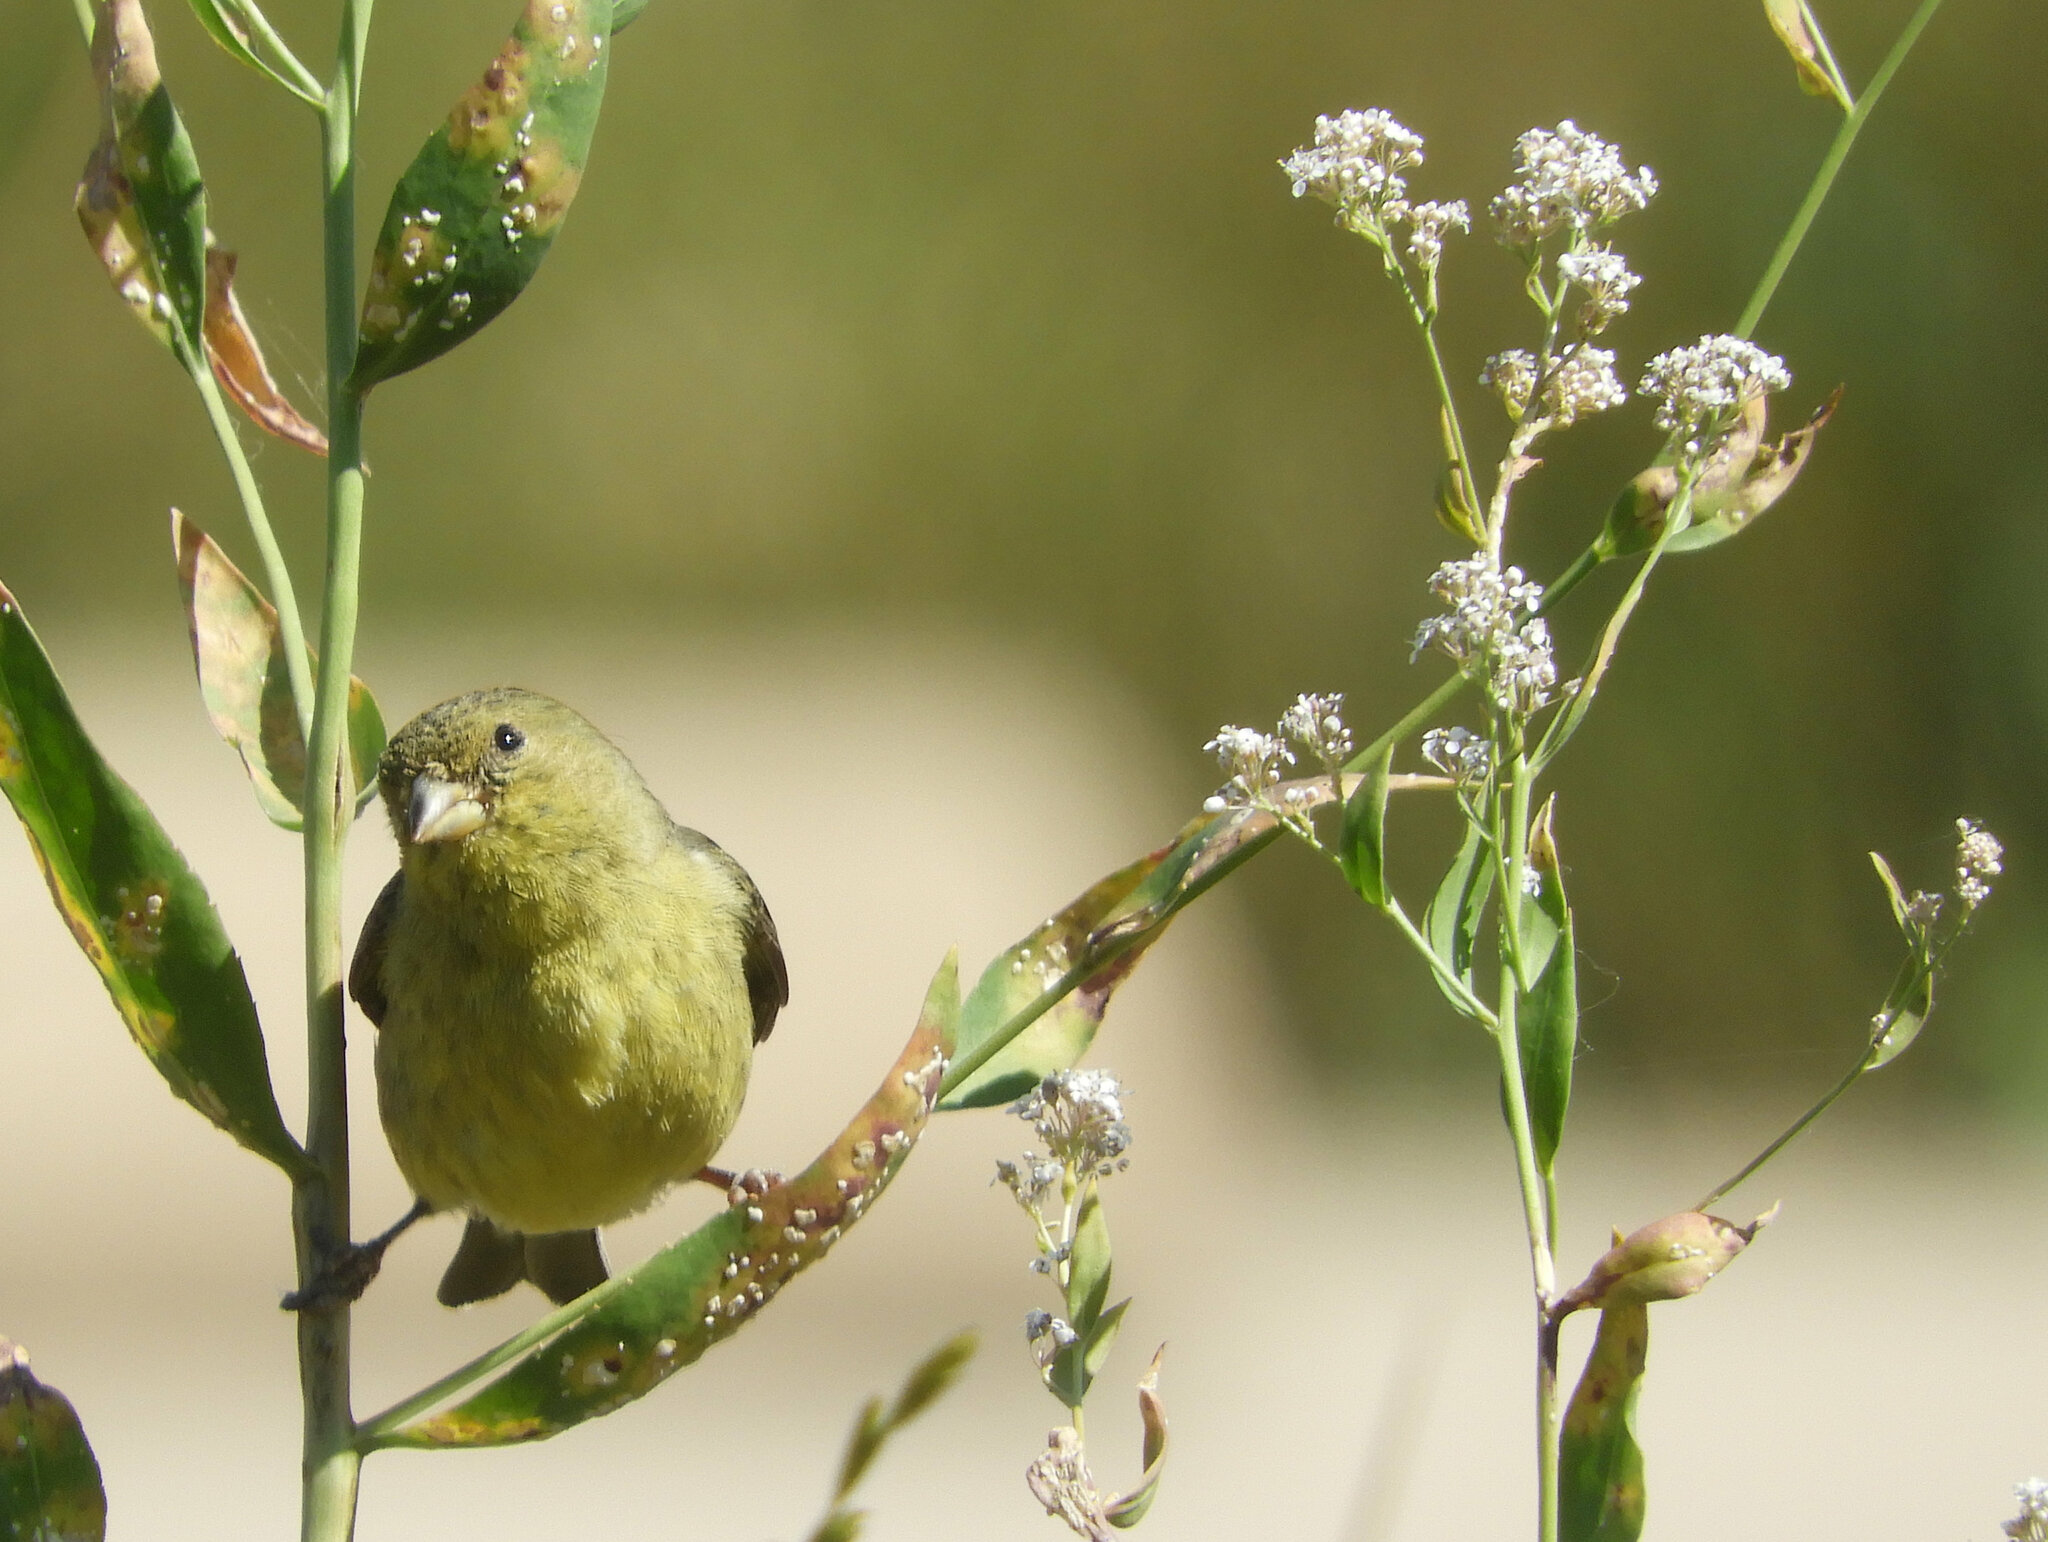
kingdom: Animalia
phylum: Chordata
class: Aves
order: Passeriformes
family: Fringillidae
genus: Spinus
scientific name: Spinus psaltria
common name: Lesser goldfinch
